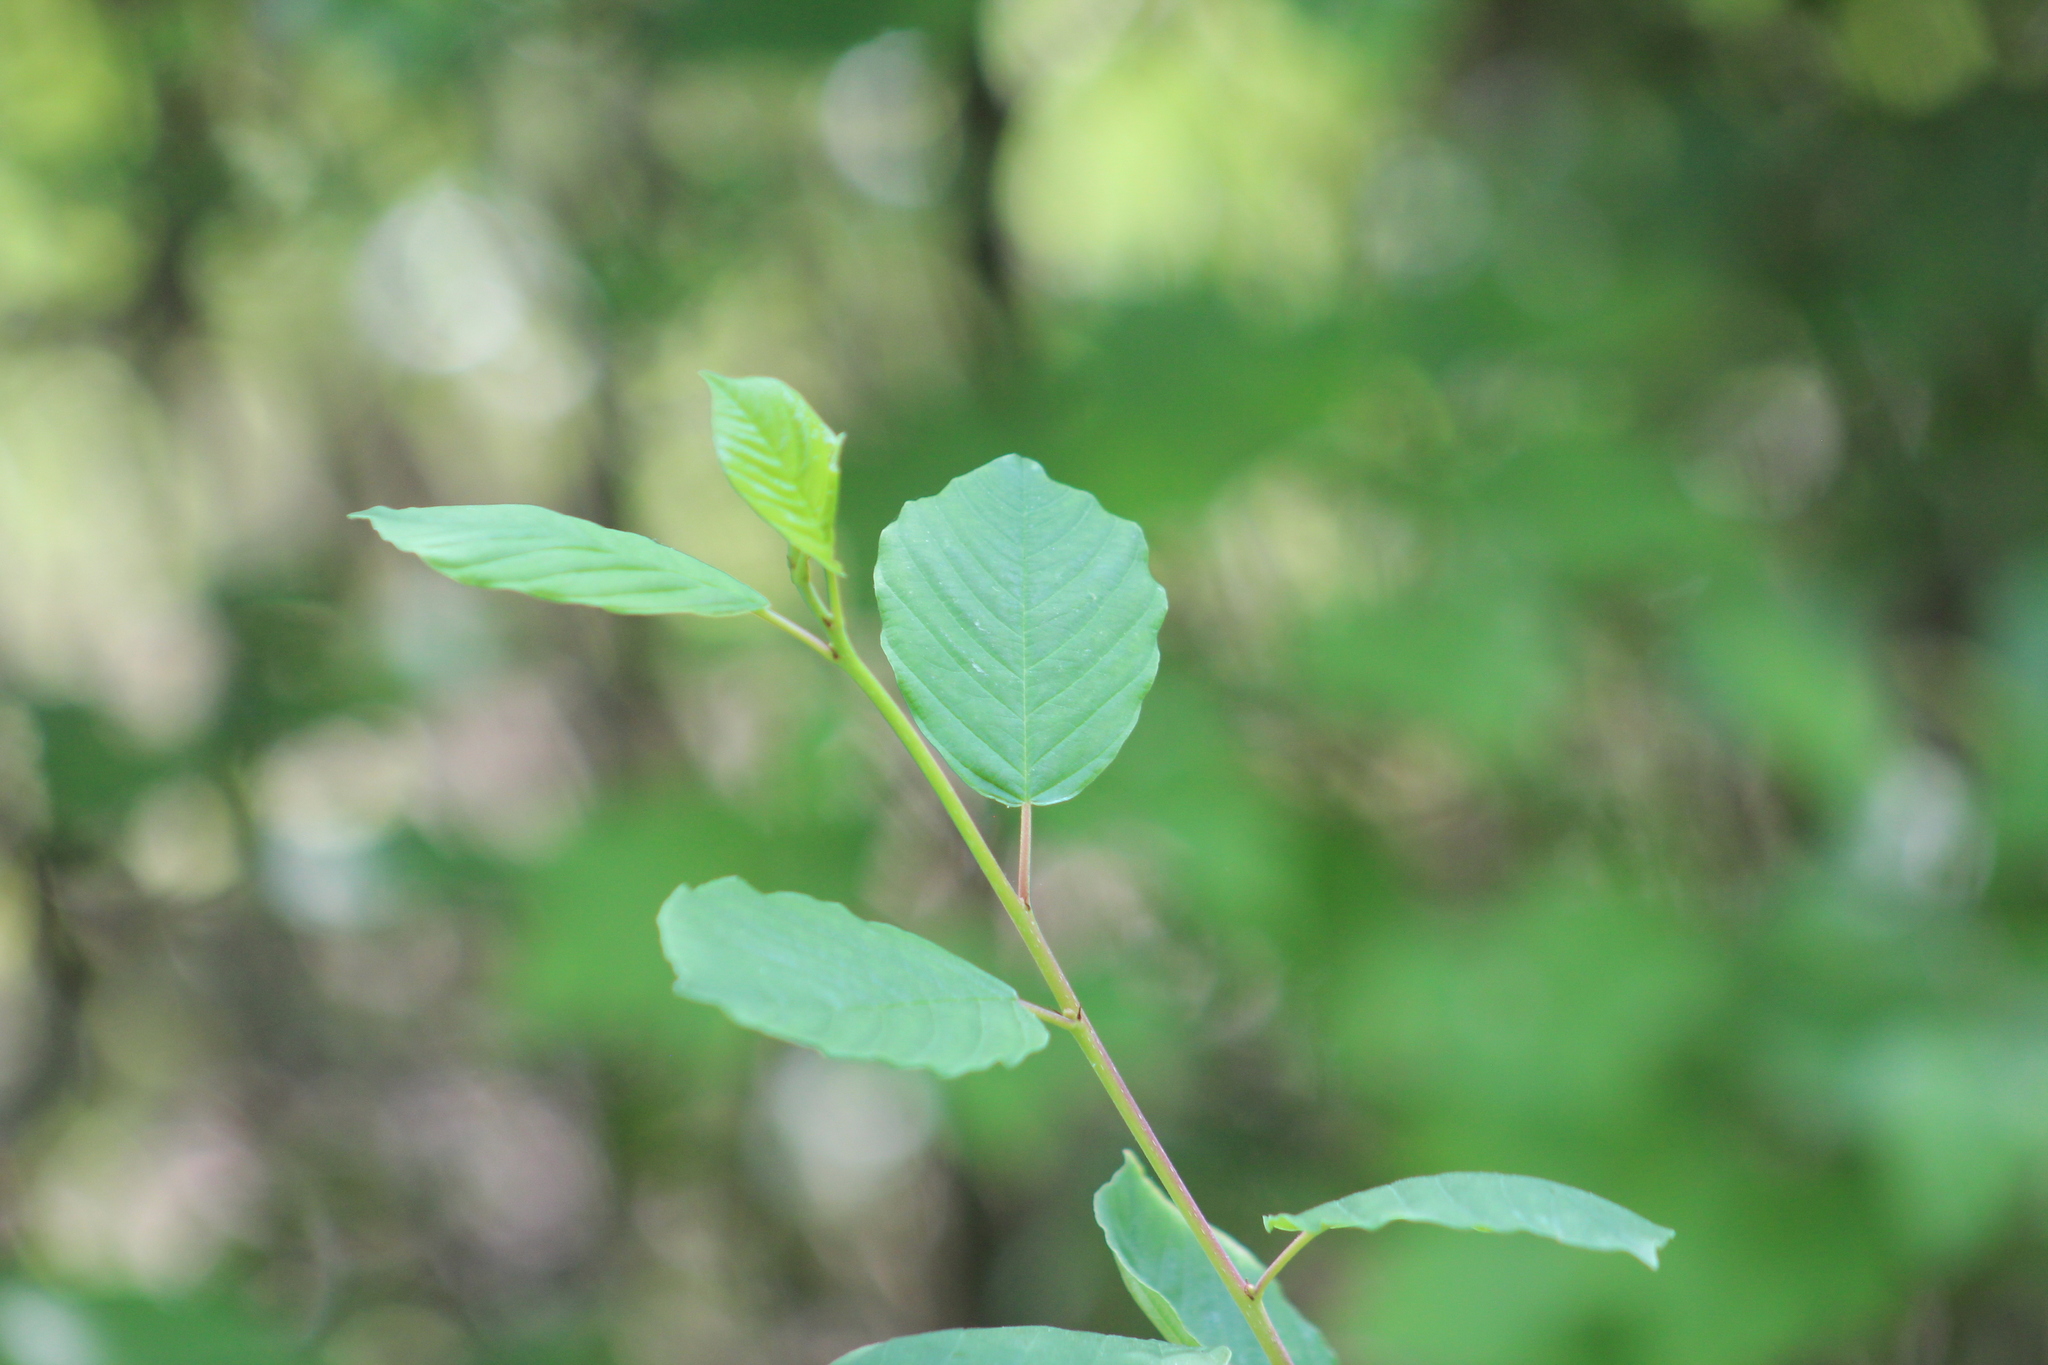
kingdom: Plantae
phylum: Tracheophyta
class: Magnoliopsida
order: Rosales
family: Rhamnaceae
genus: Frangula
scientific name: Frangula alnus
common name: Alder buckthorn
